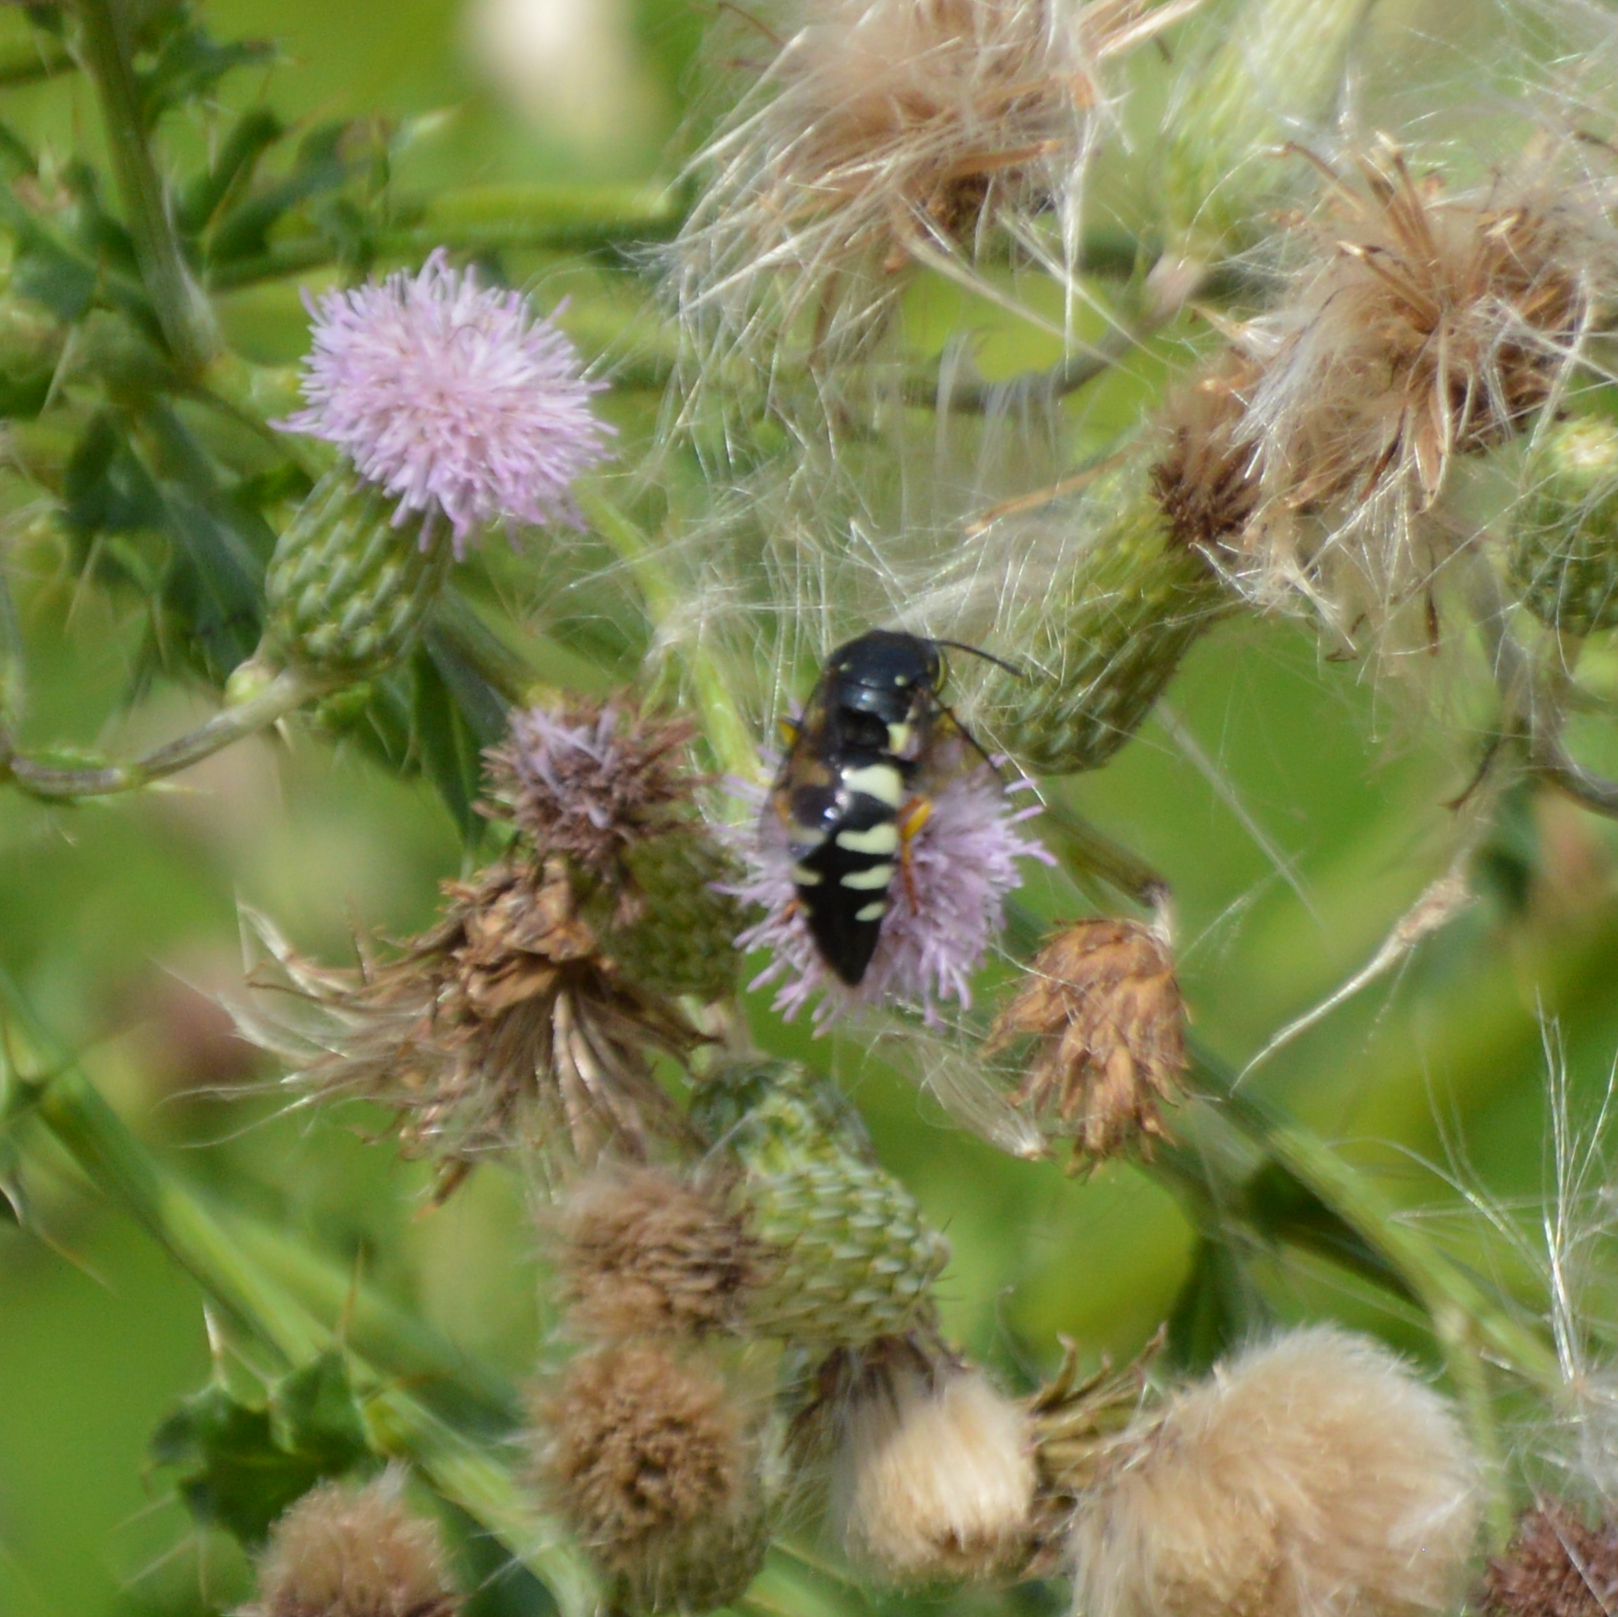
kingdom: Animalia
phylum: Arthropoda
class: Insecta
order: Hymenoptera
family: Crabronidae
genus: Bicyrtes
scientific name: Bicyrtes quadrifasciatus
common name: Four-banded stink bug hunter wasp
